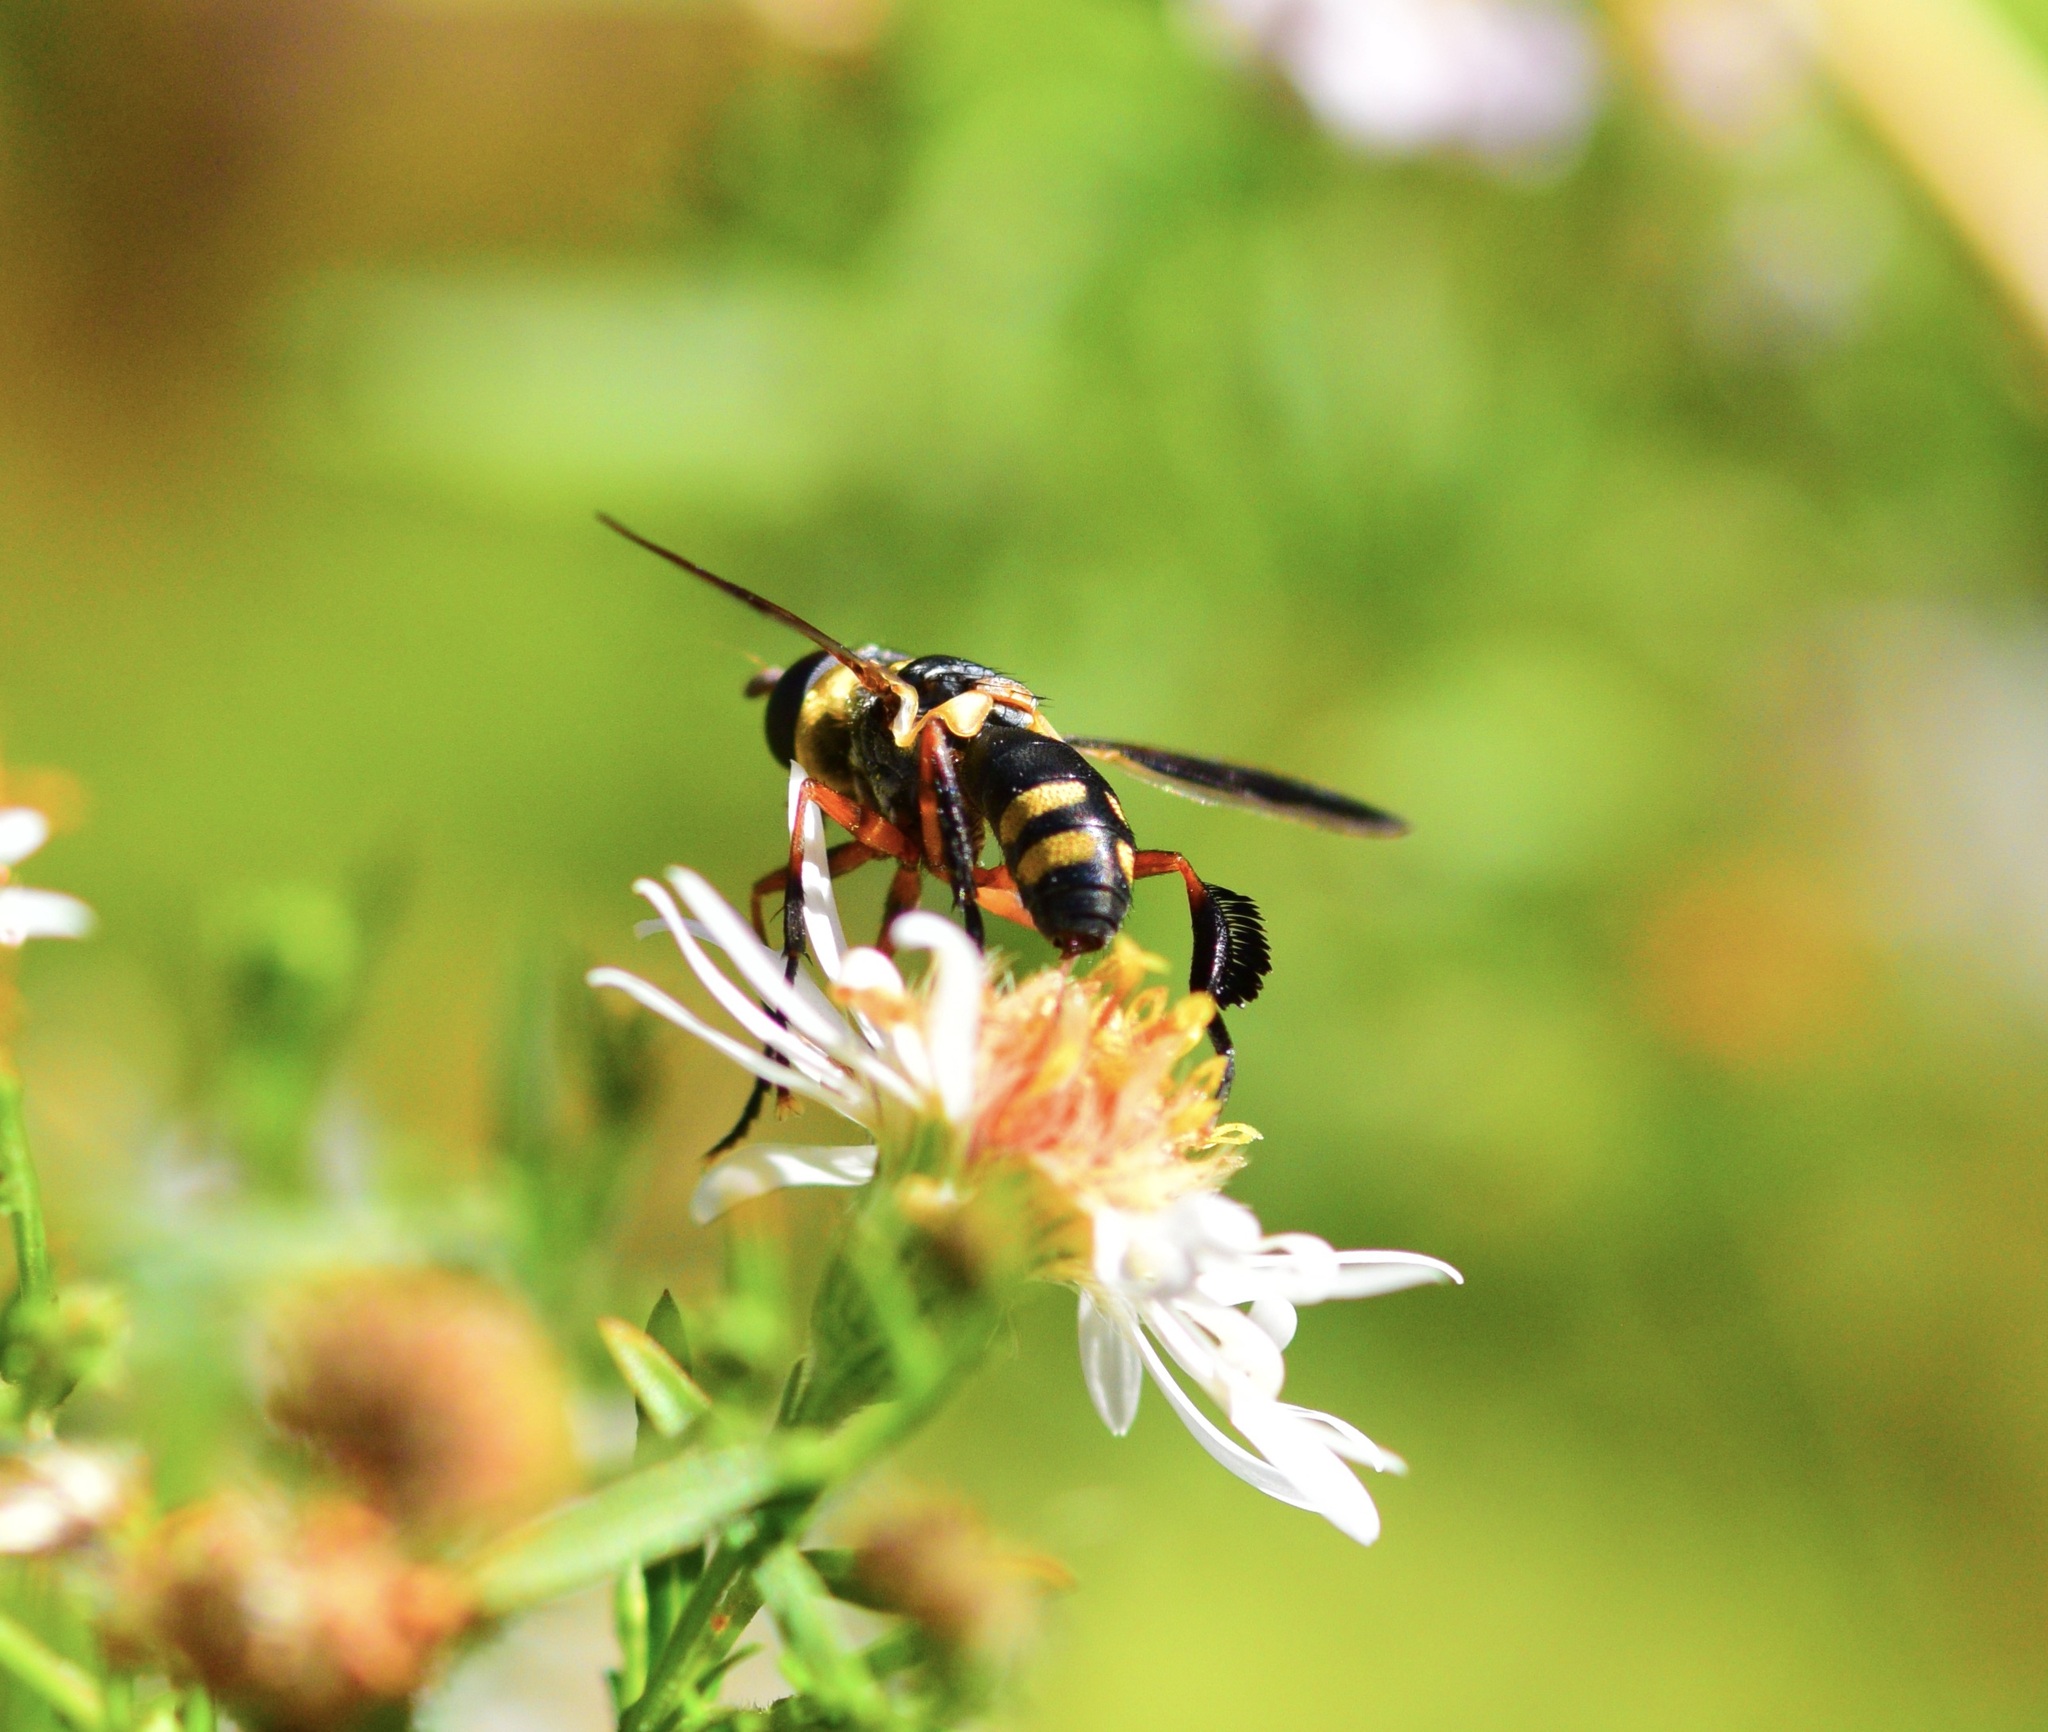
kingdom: Animalia
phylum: Arthropoda
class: Insecta
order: Diptera
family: Tachinidae
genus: Trichopoda
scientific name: Trichopoda plumipes
